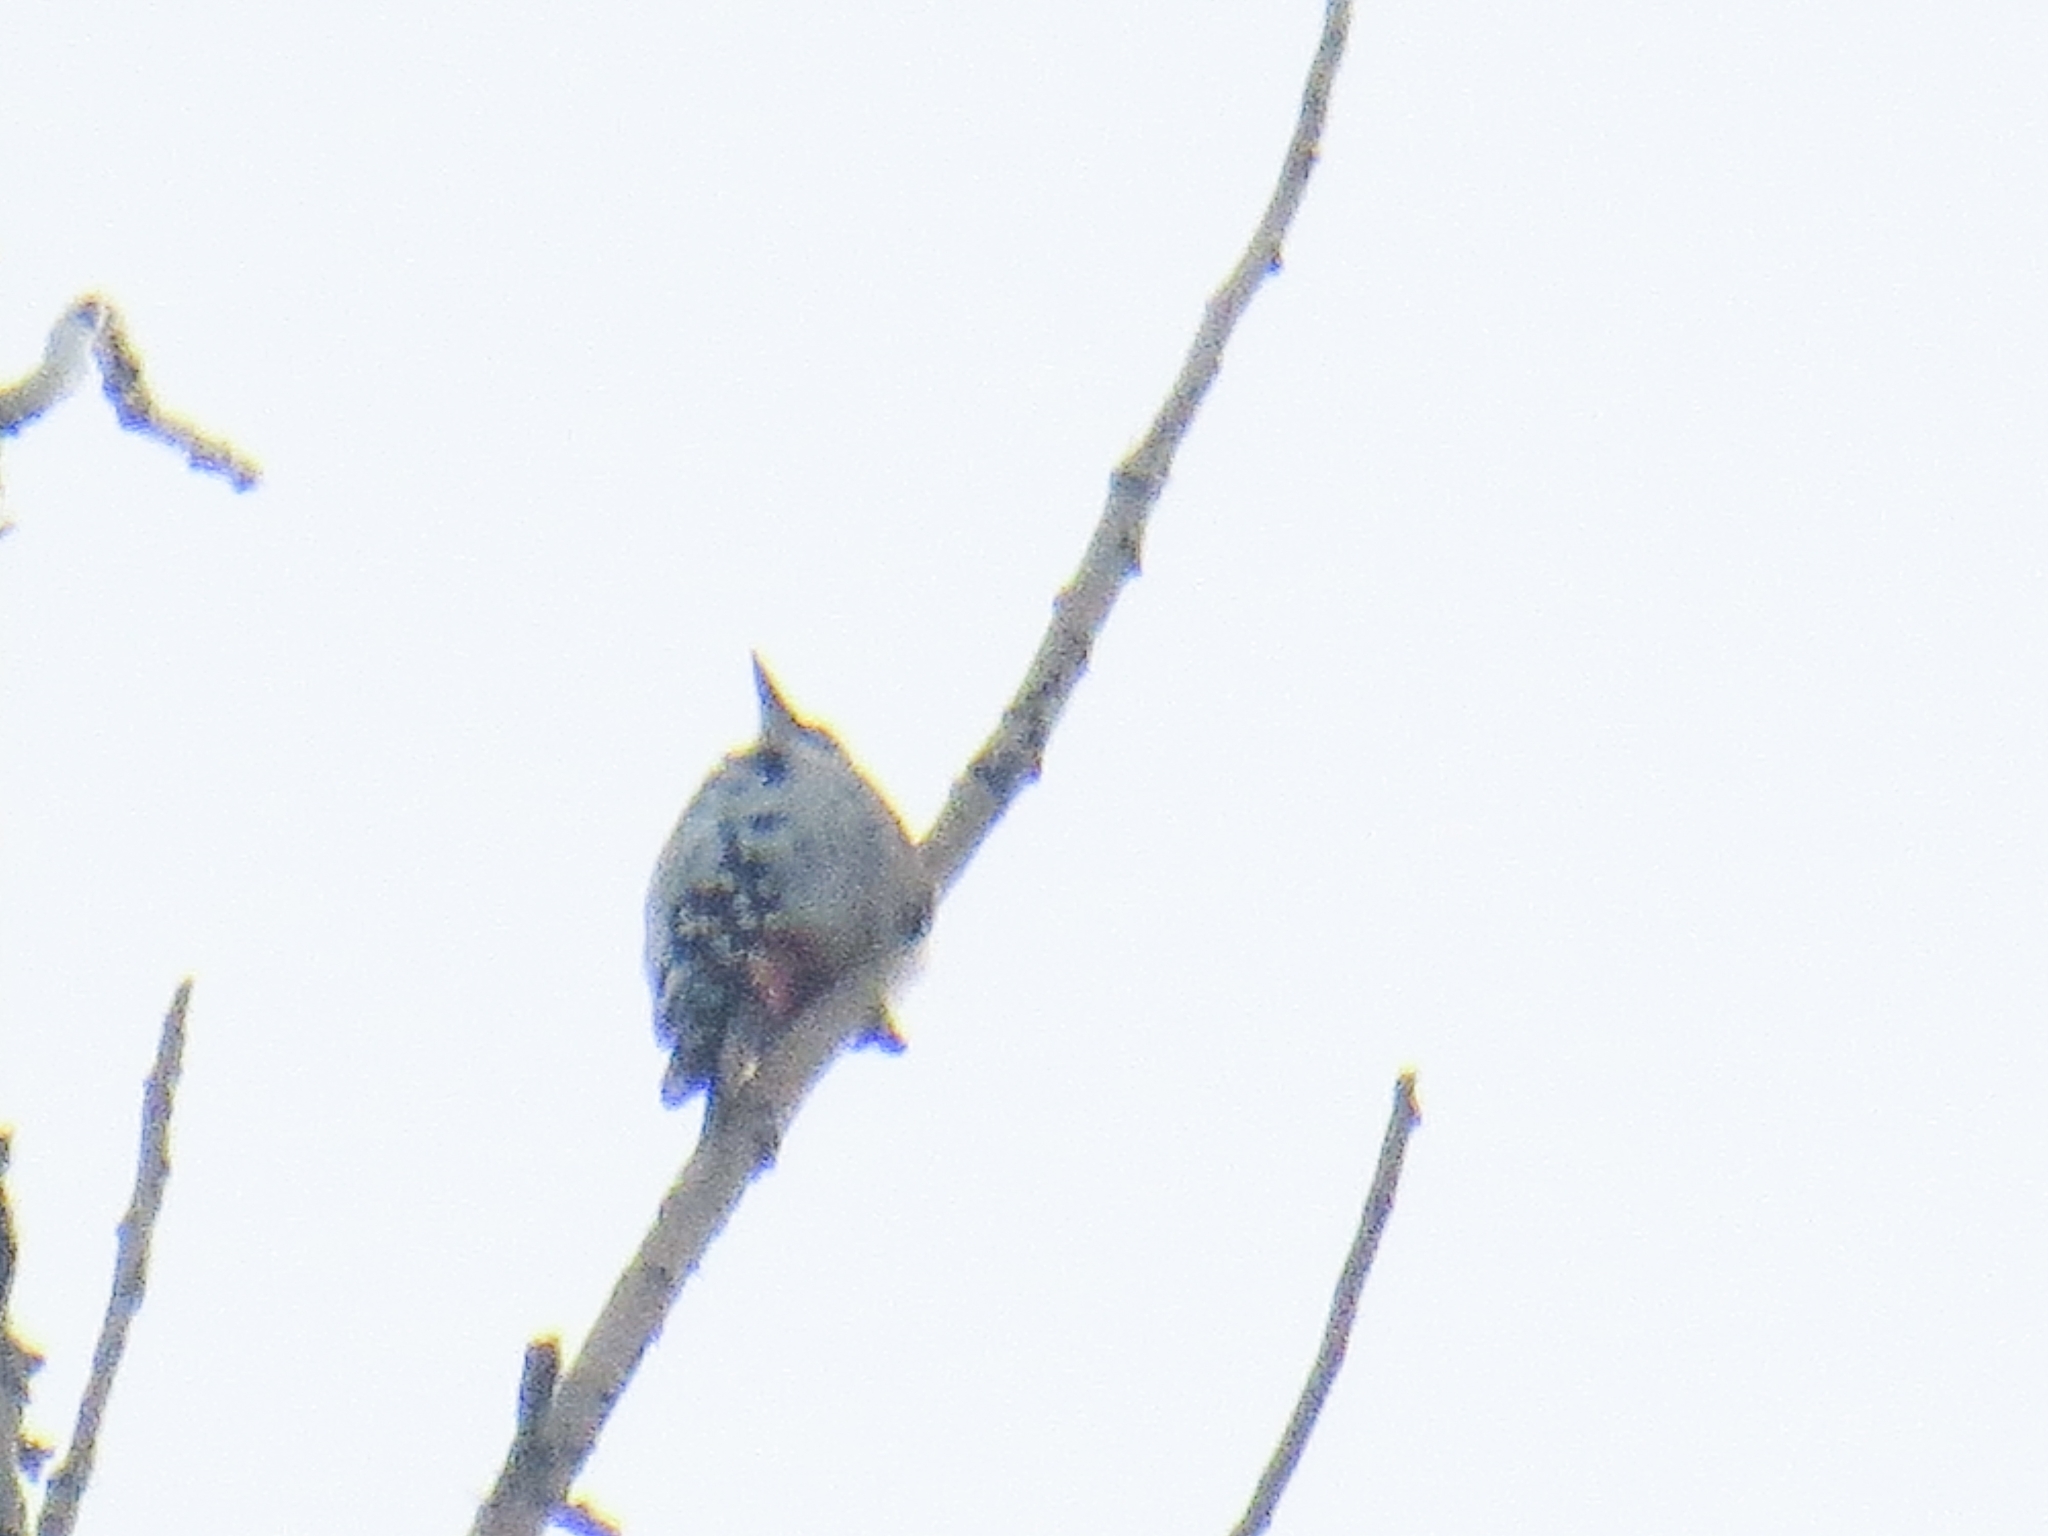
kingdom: Animalia
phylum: Chordata
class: Aves
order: Piciformes
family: Picidae
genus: Dendrocopos
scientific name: Dendrocopos leucotos
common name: White-backed woodpecker
